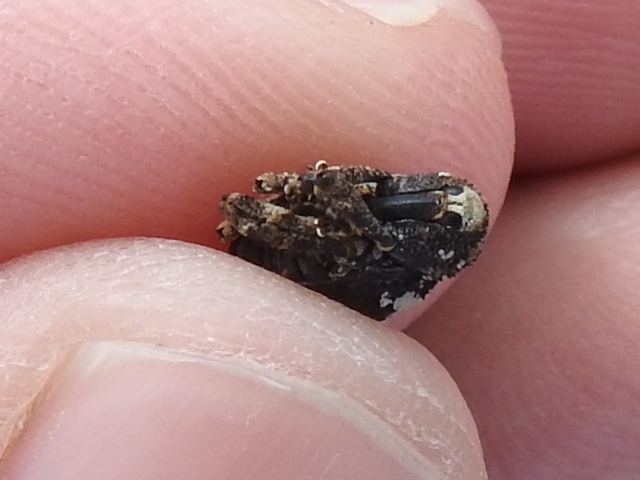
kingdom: Animalia
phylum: Arthropoda
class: Insecta
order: Coleoptera
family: Curculionidae
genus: Gerstaeckeria
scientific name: Gerstaeckeria nobilis
